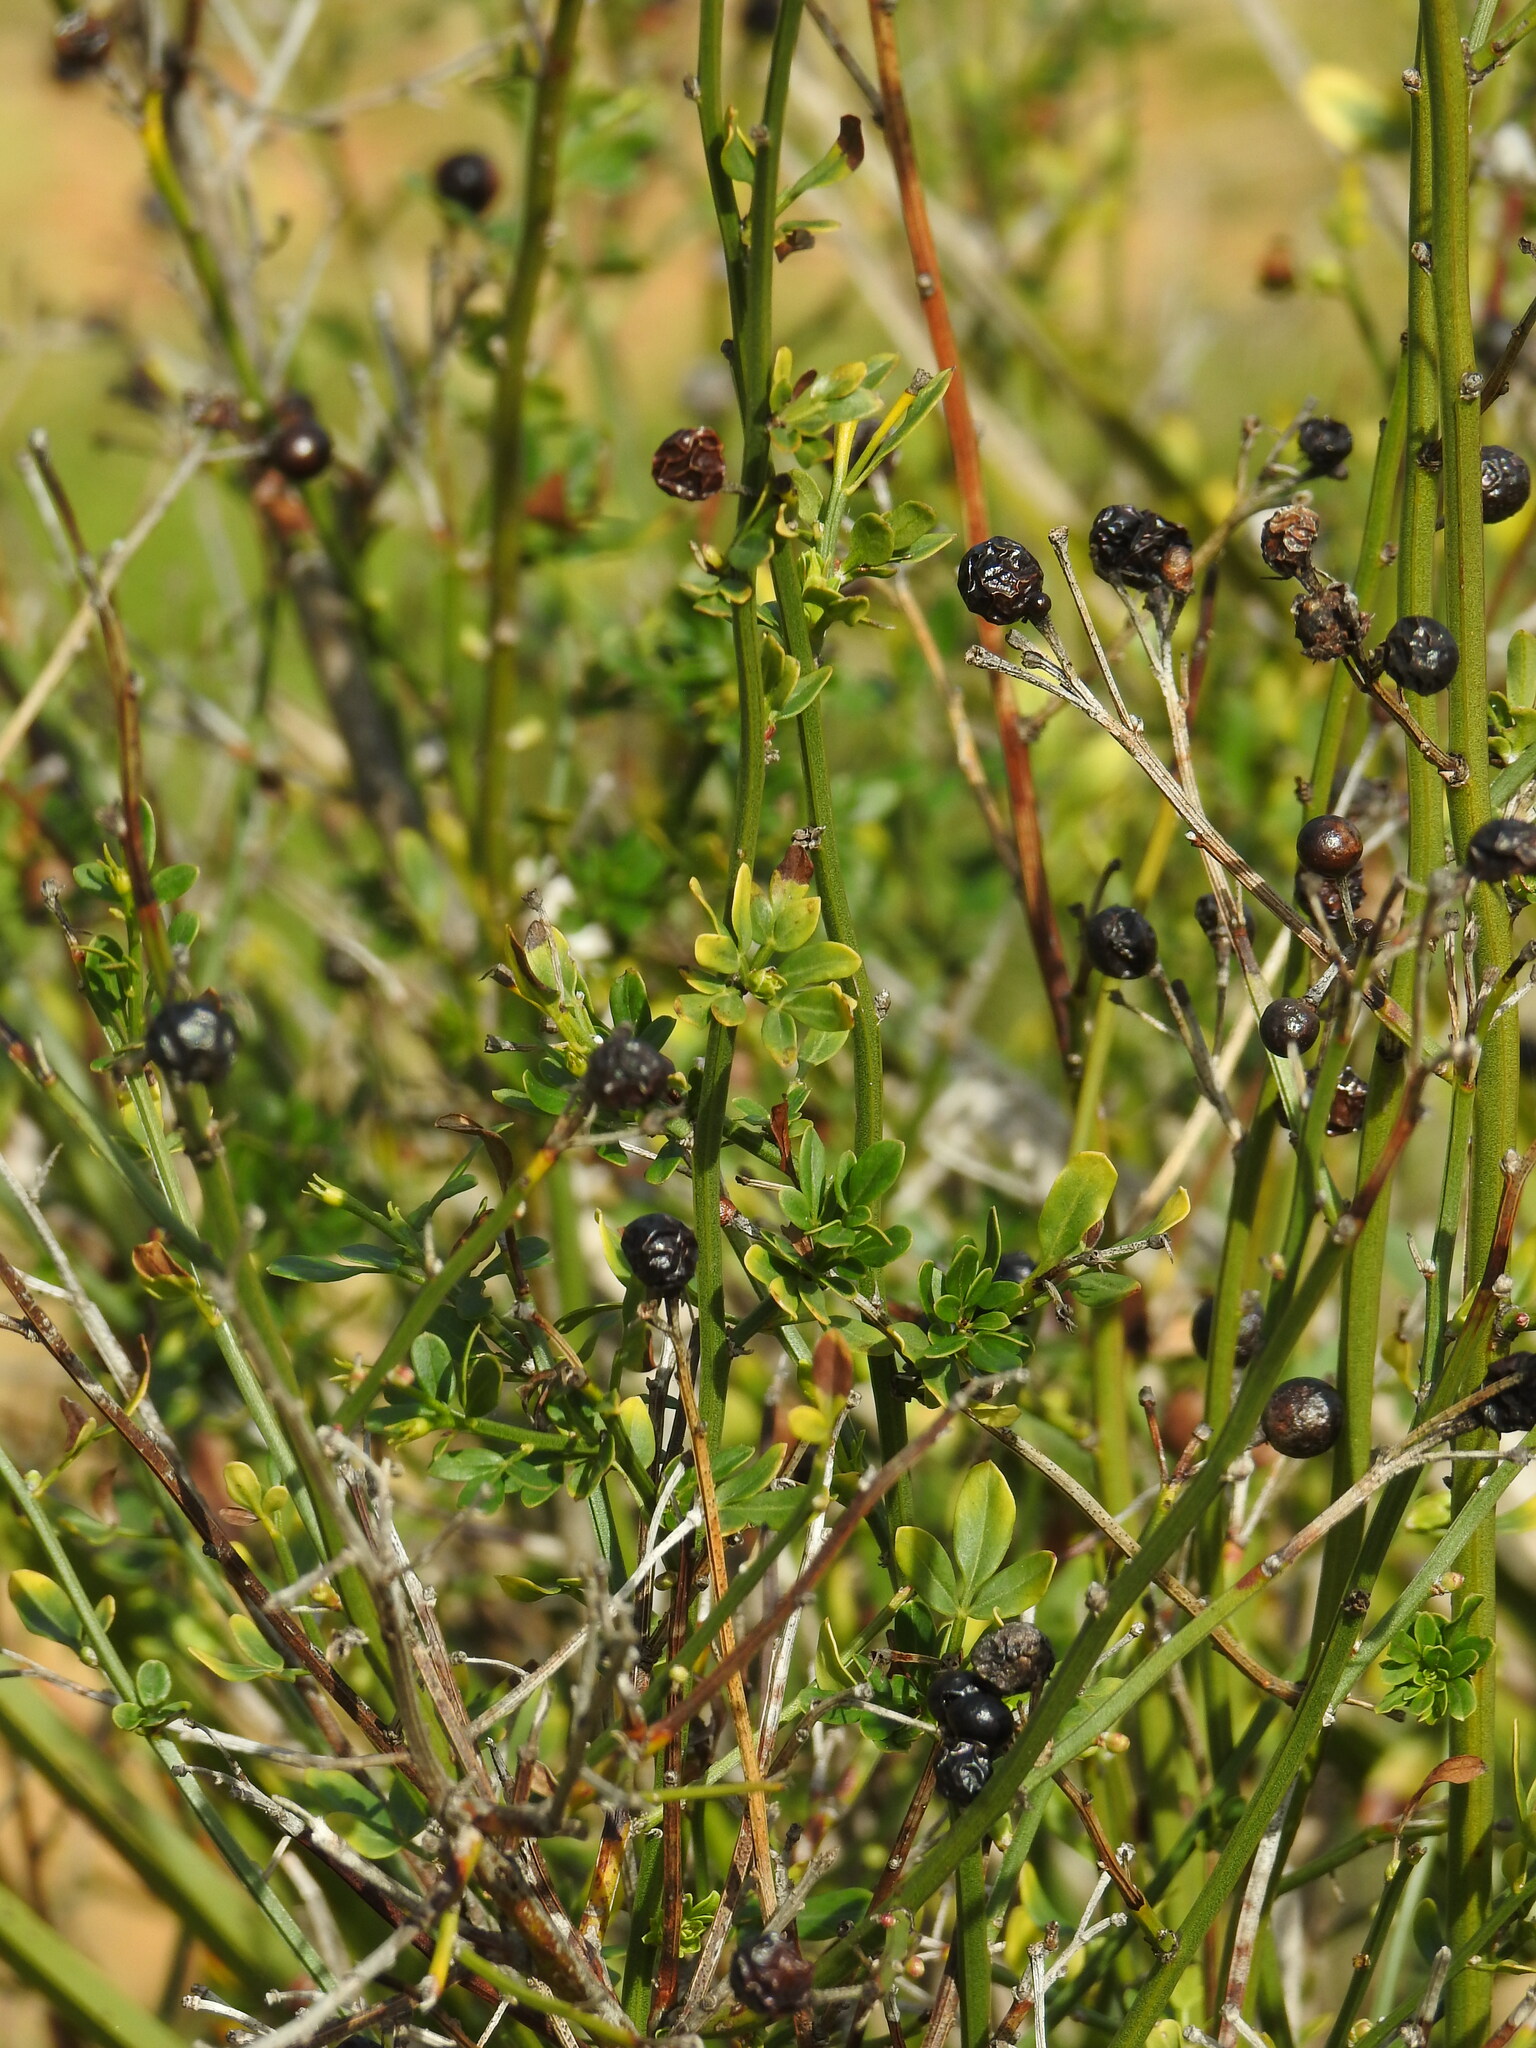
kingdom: Plantae
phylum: Tracheophyta
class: Magnoliopsida
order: Lamiales
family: Oleaceae
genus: Chrysojasminum
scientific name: Chrysojasminum fruticans
